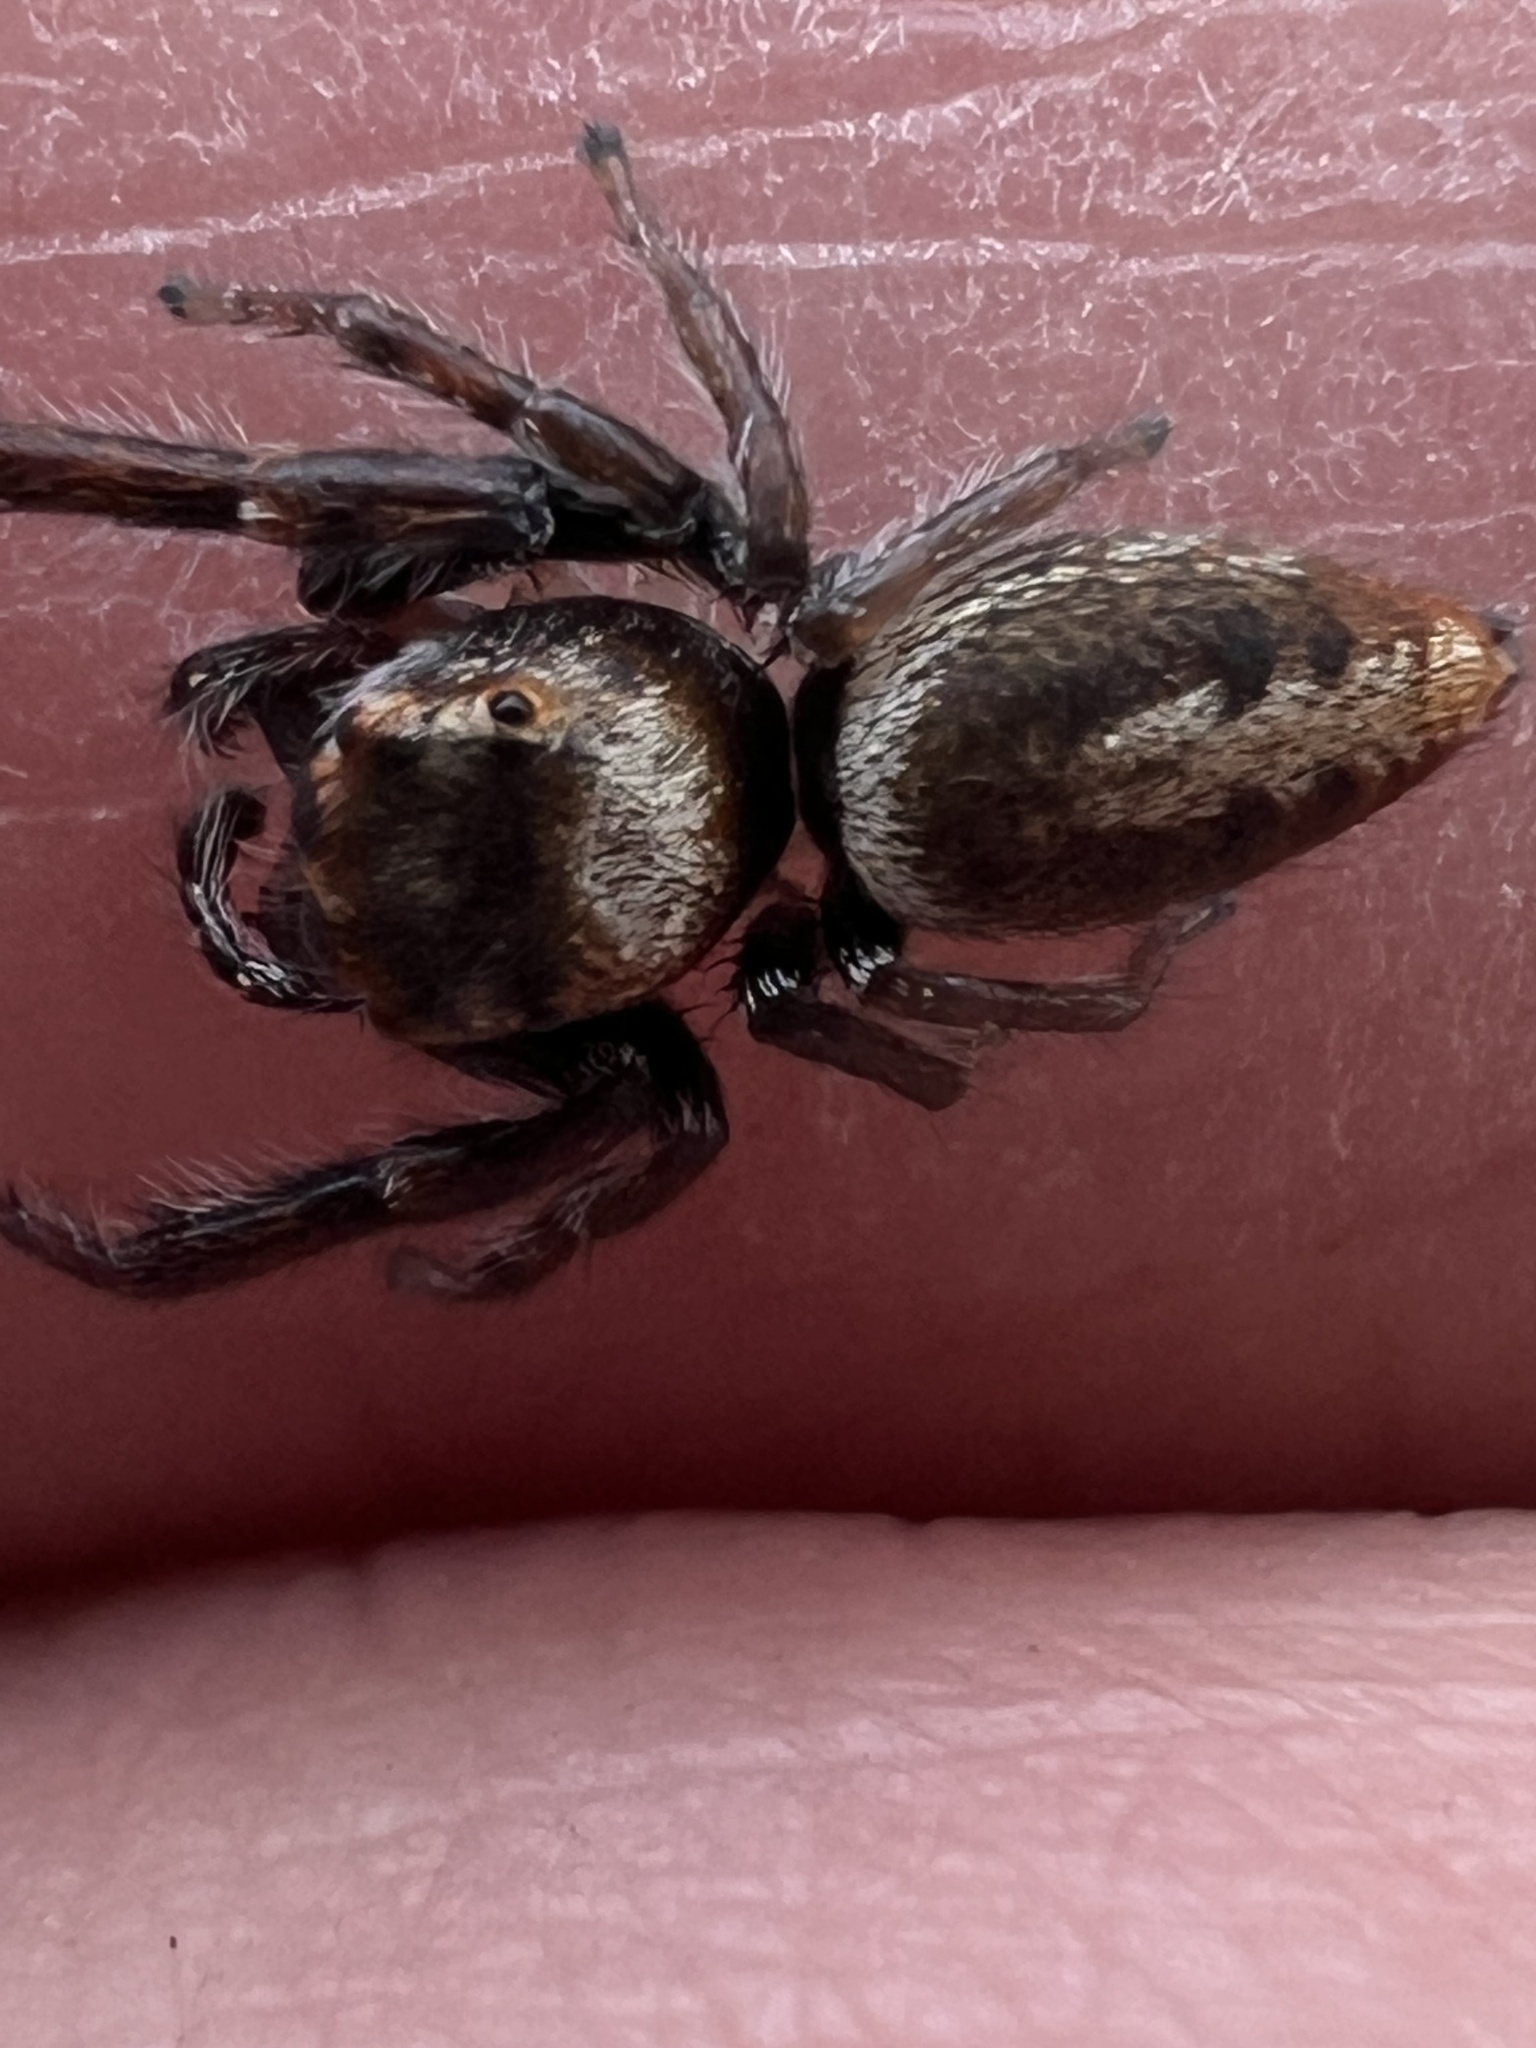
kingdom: Animalia
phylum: Arthropoda
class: Arachnida
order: Araneae
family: Salticidae
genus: Opisthoncus
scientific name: Opisthoncus polyphemus
